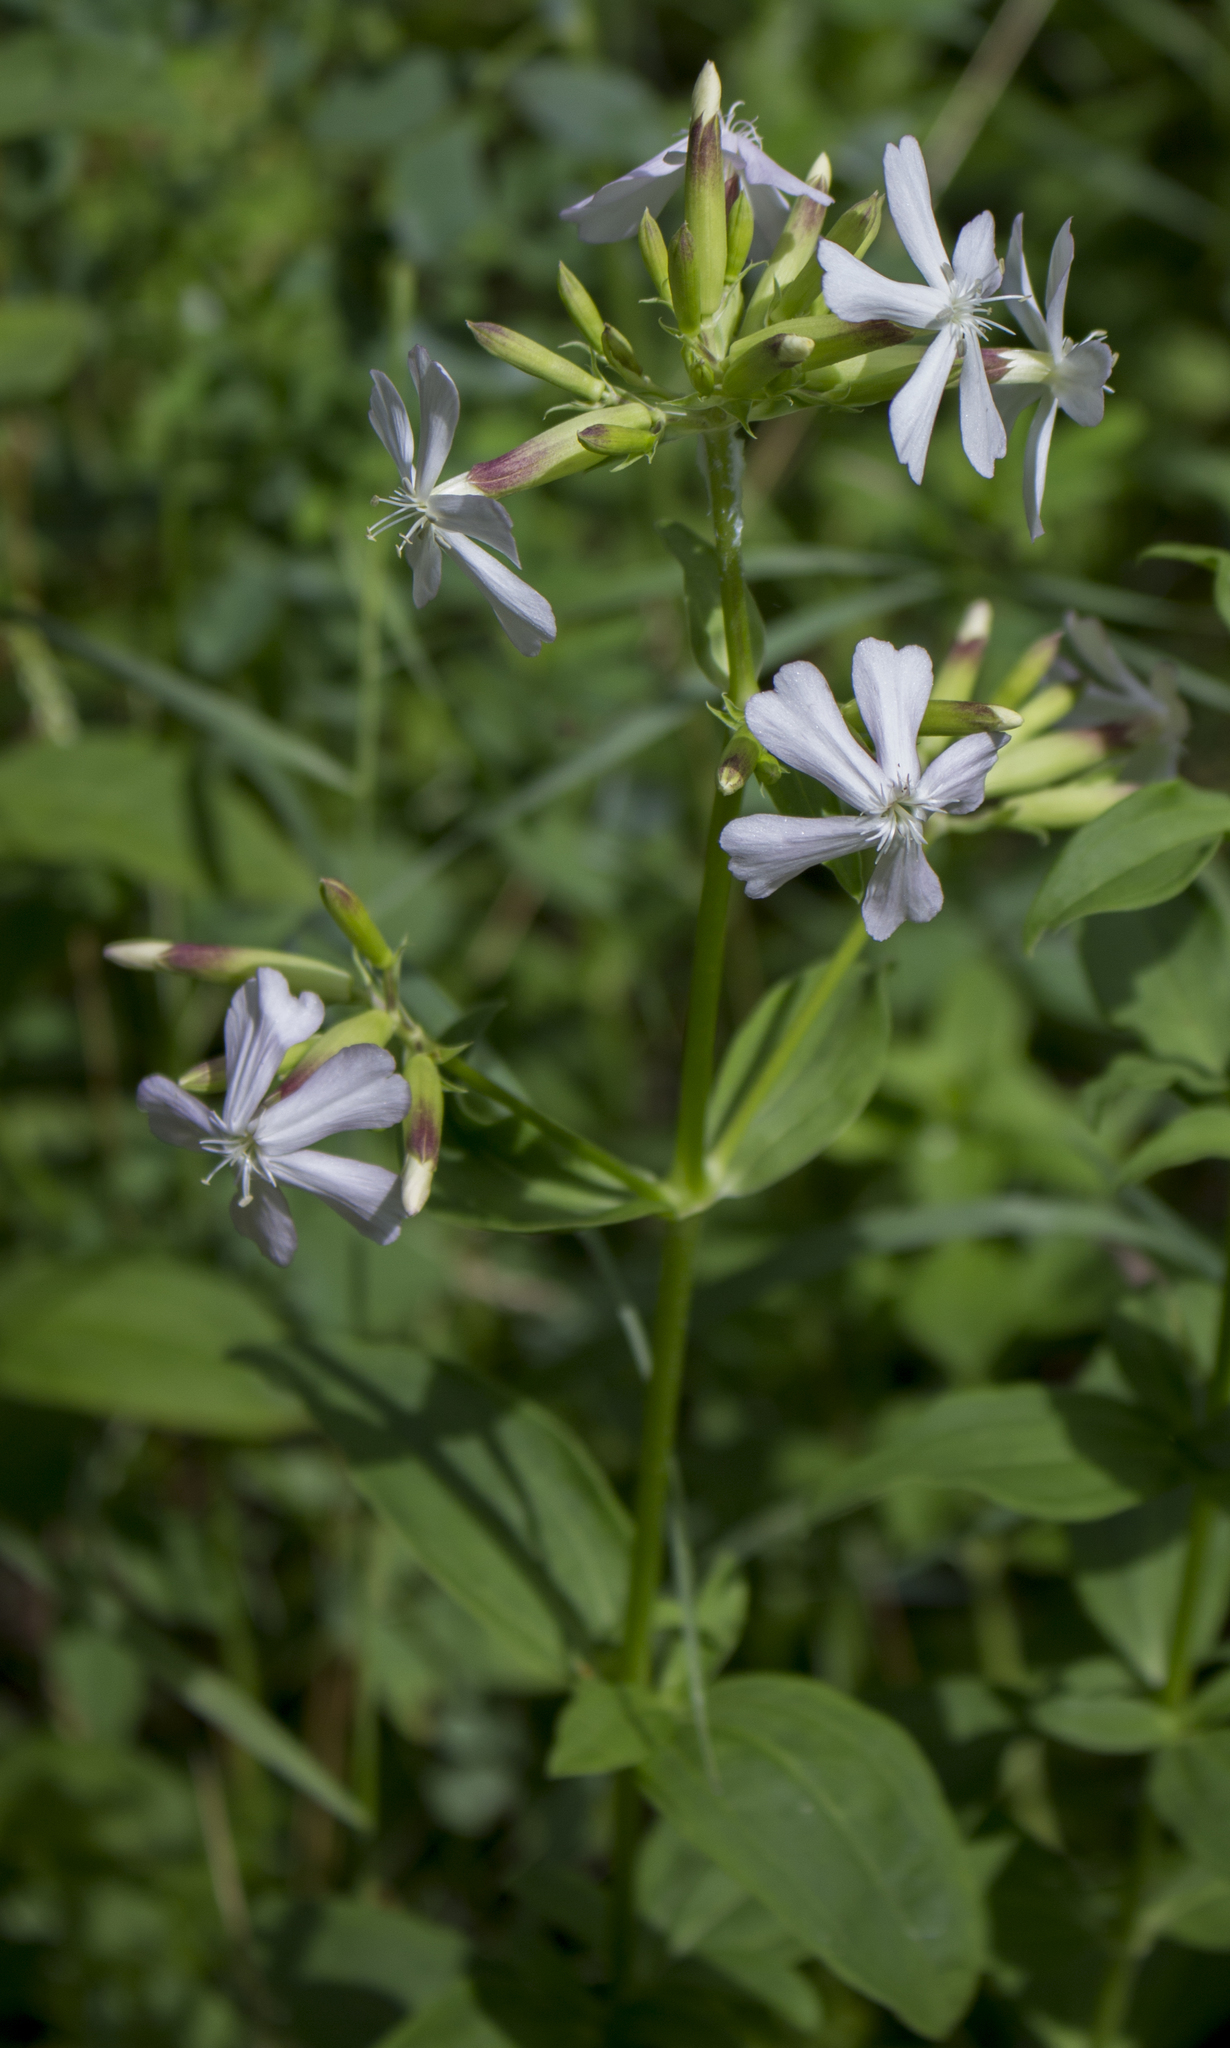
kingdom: Plantae
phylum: Tracheophyta
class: Magnoliopsida
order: Caryophyllales
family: Caryophyllaceae
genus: Saponaria
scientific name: Saponaria officinalis
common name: Soapwort
